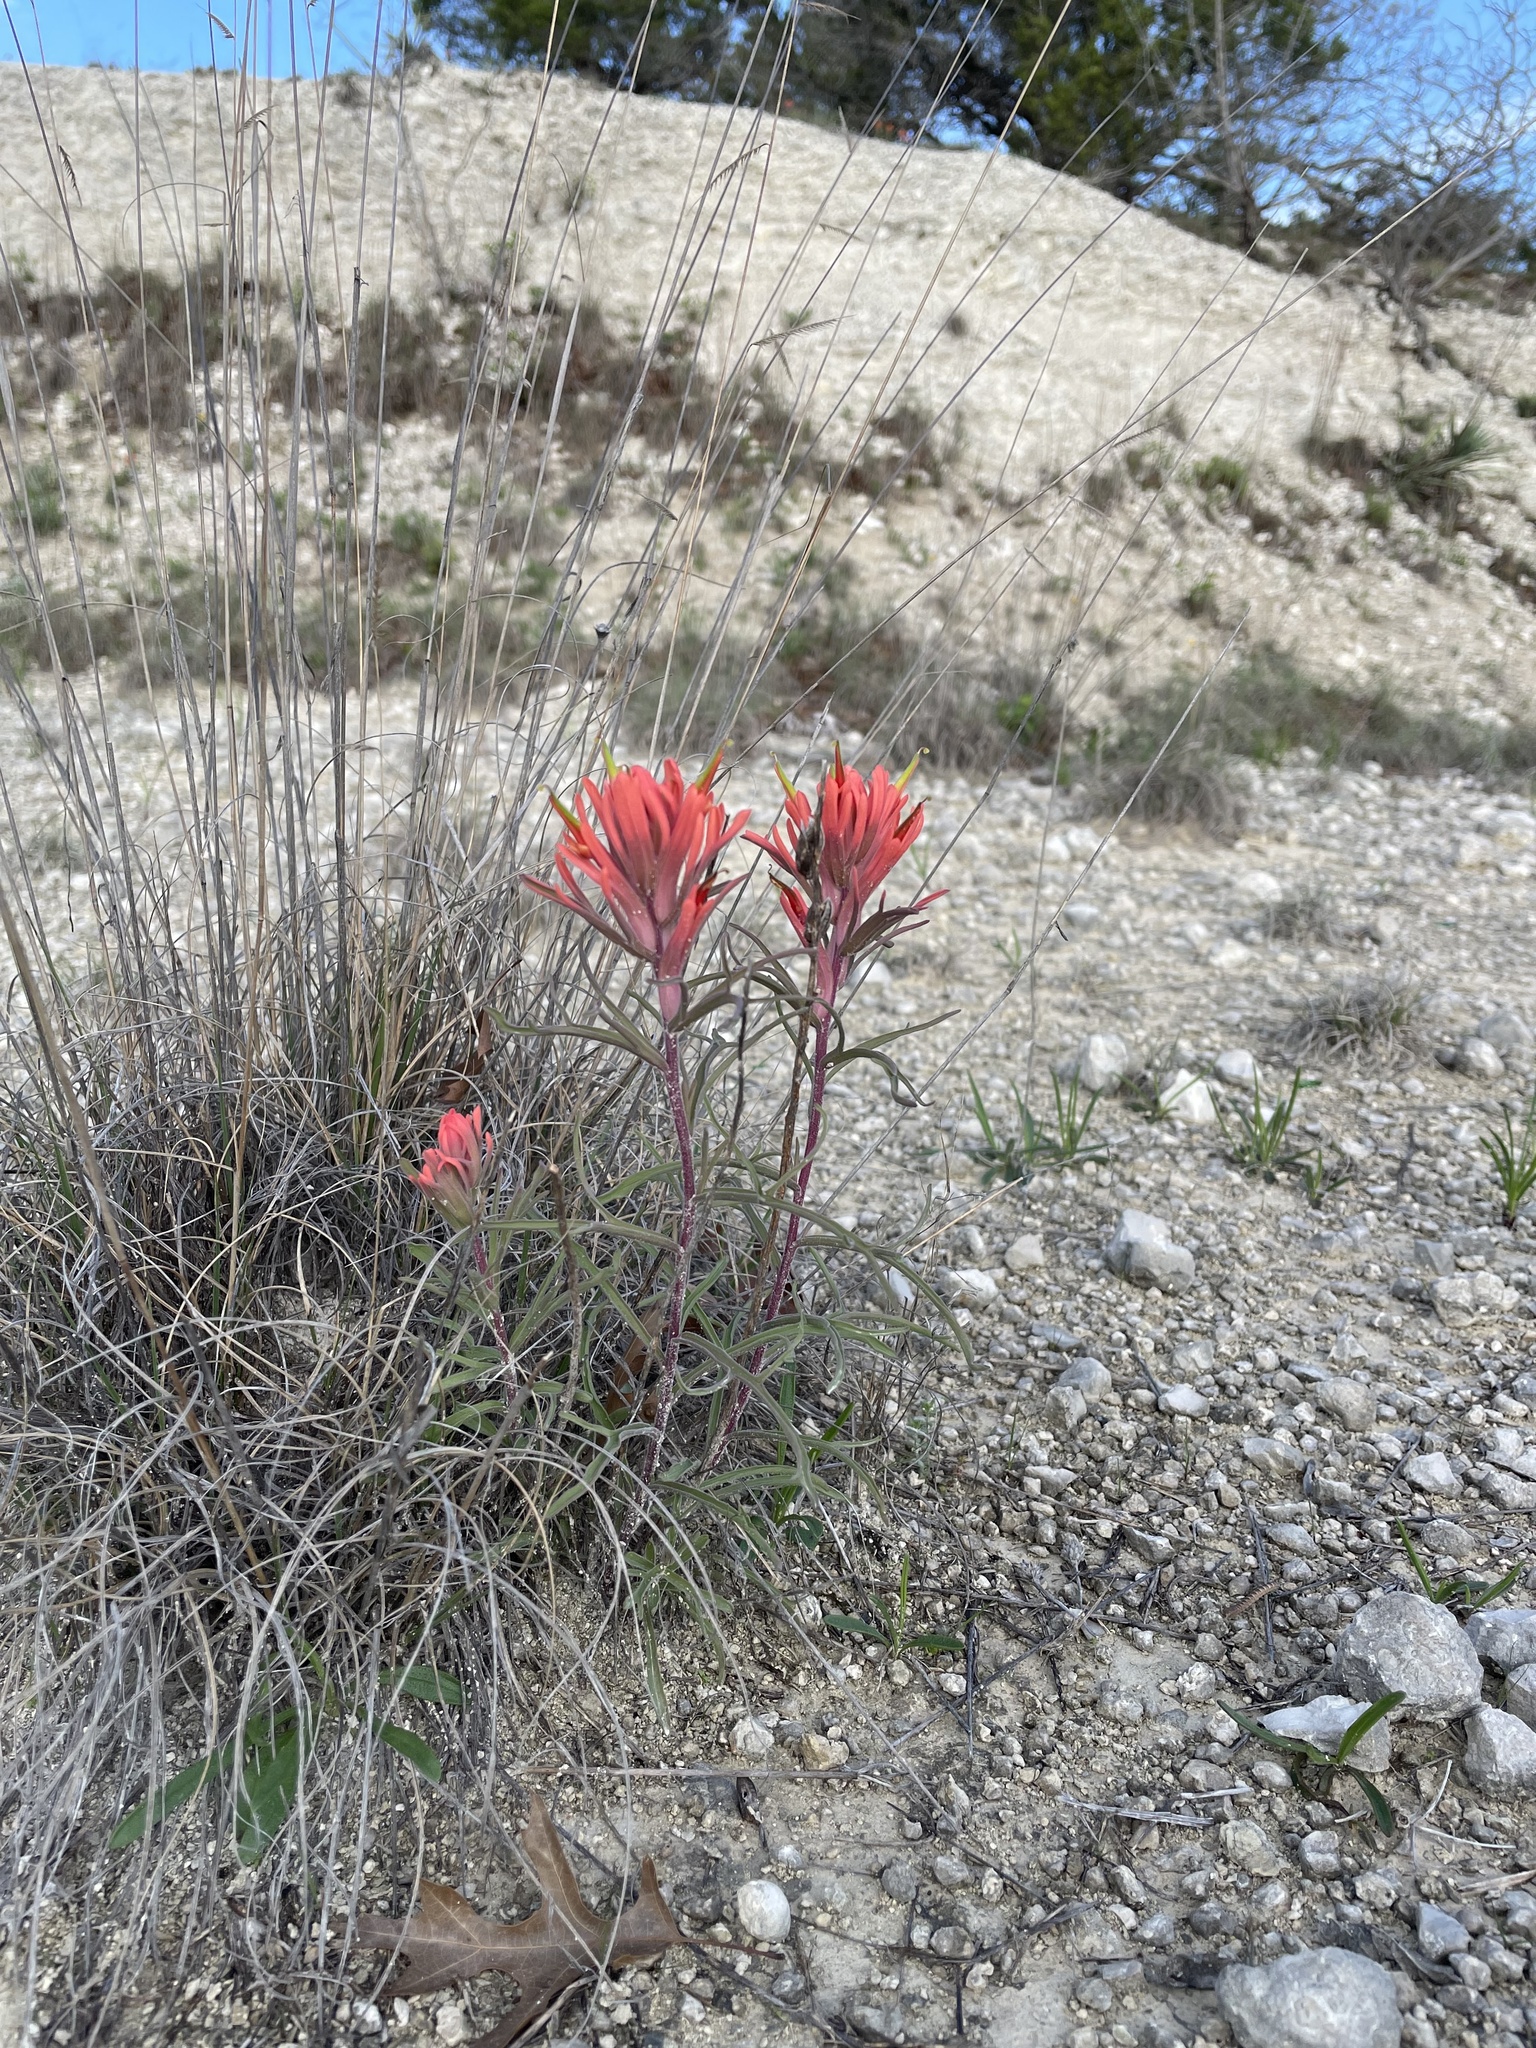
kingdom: Plantae
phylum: Tracheophyta
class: Magnoliopsida
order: Lamiales
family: Orobanchaceae
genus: Castilleja
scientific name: Castilleja lindheimeri
